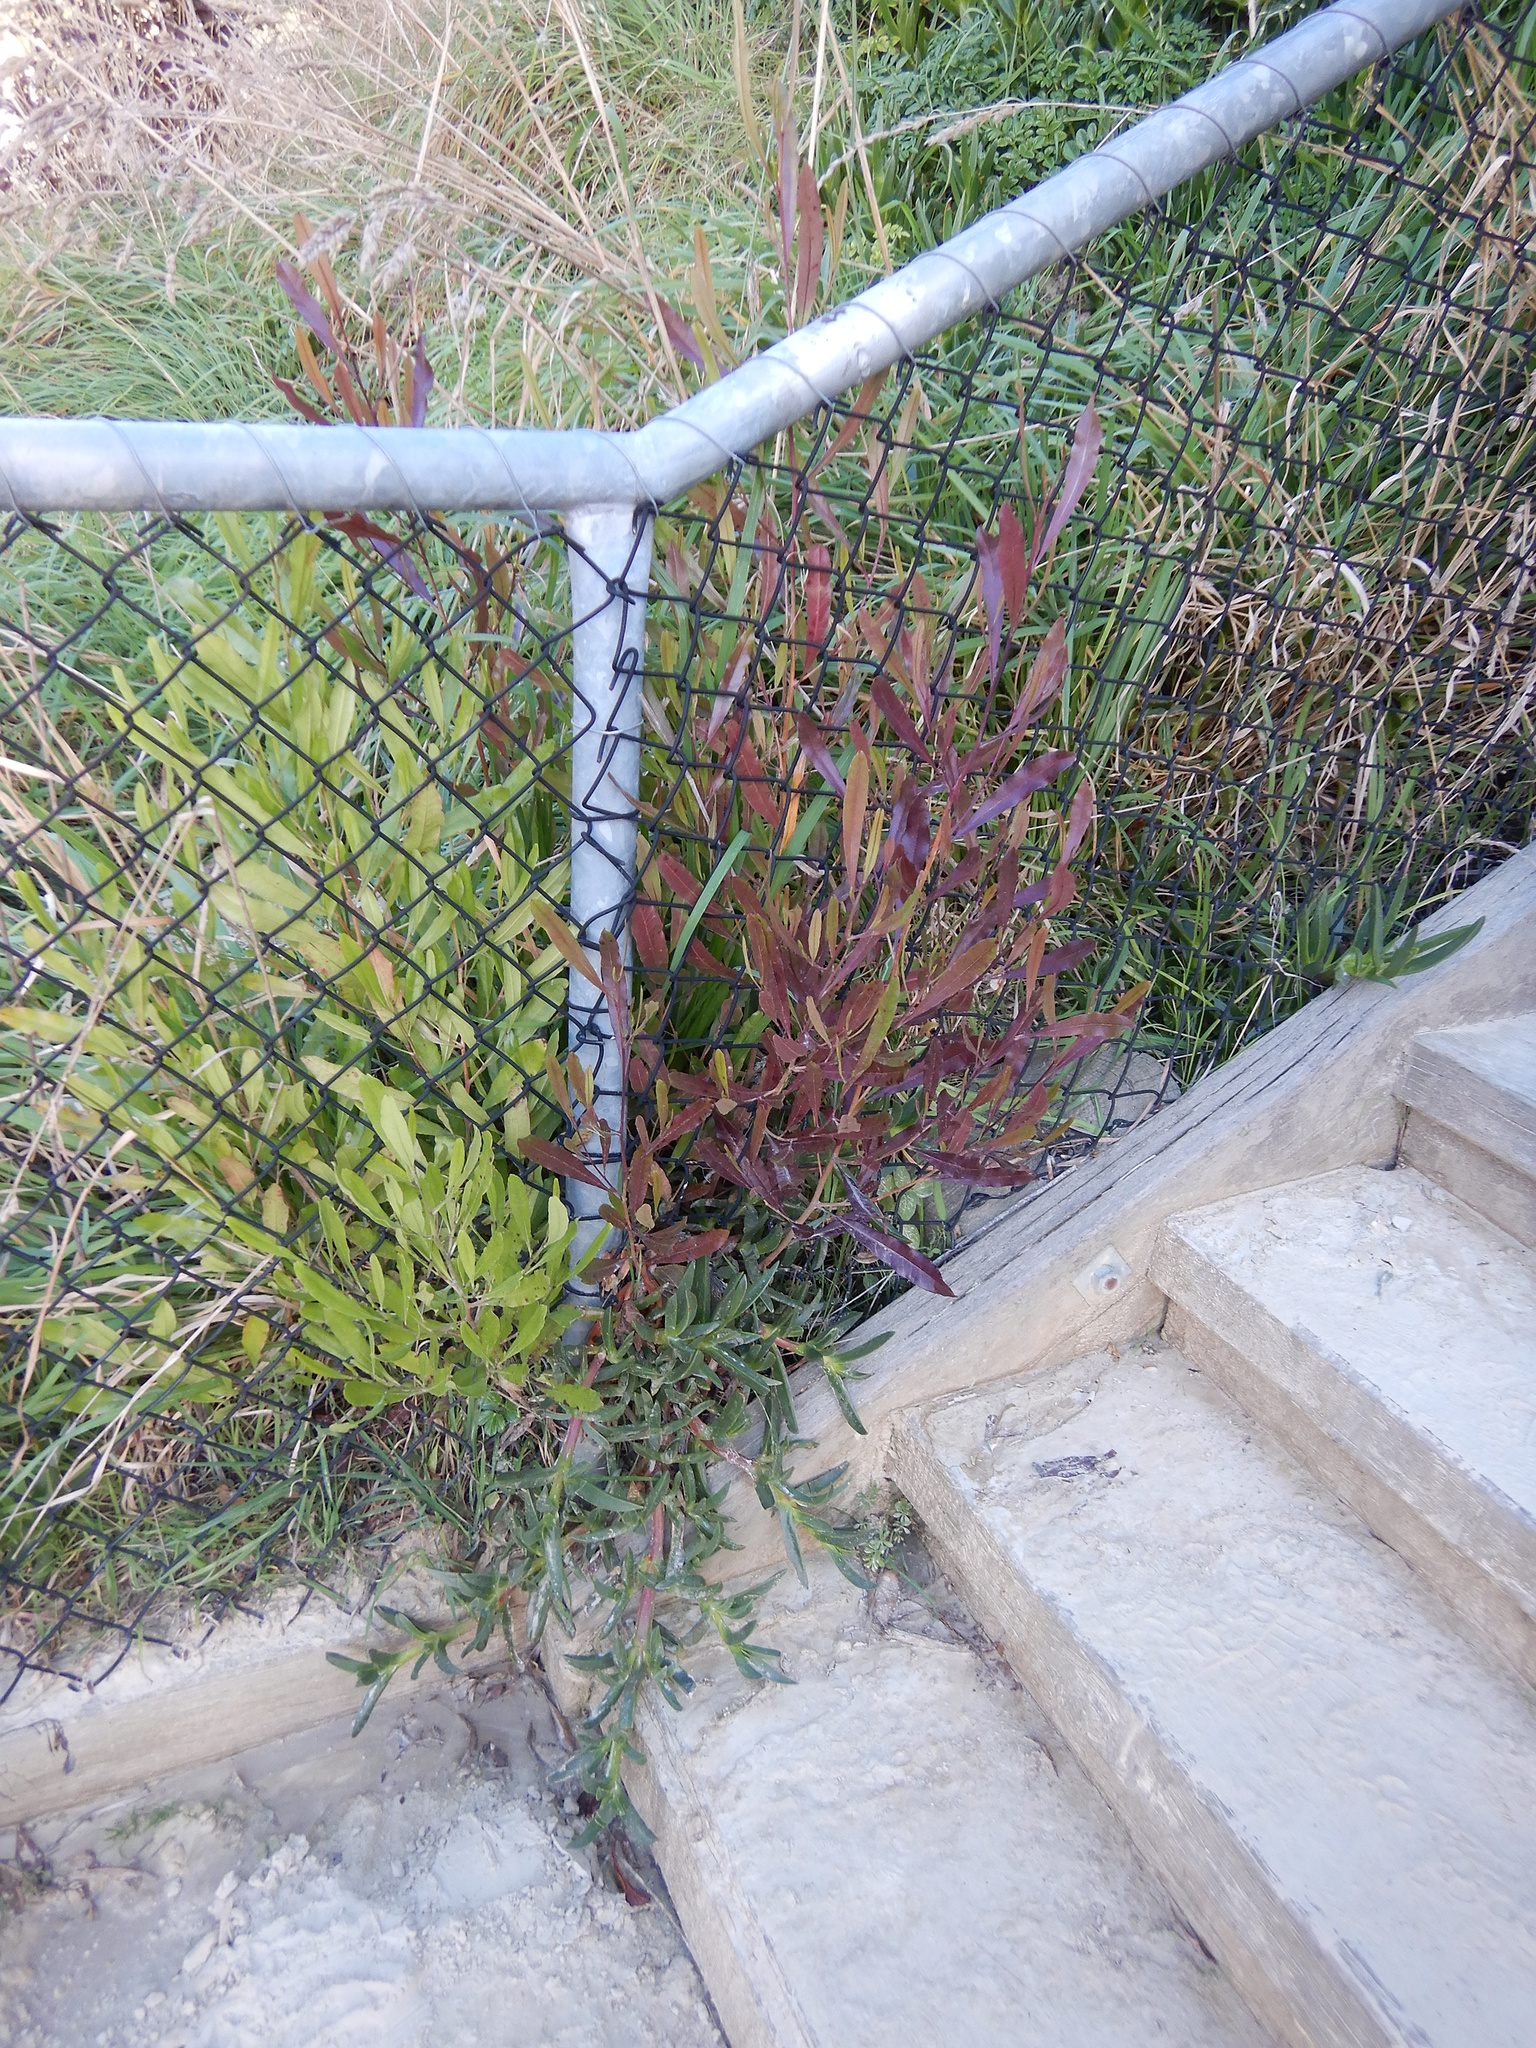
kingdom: Plantae
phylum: Tracheophyta
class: Magnoliopsida
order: Sapindales
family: Sapindaceae
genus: Dodonaea
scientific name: Dodonaea viscosa
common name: Hopbush
